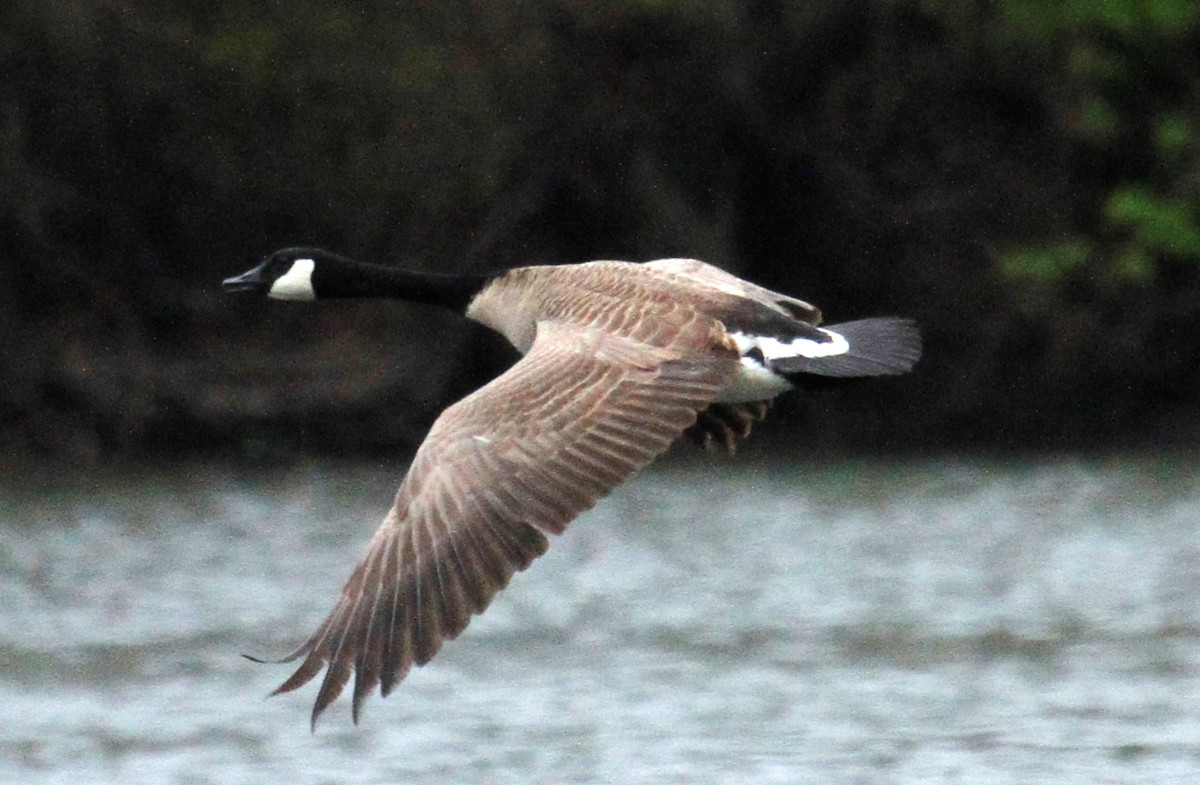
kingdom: Animalia
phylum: Chordata
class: Aves
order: Anseriformes
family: Anatidae
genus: Branta
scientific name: Branta canadensis
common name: Canada goose
